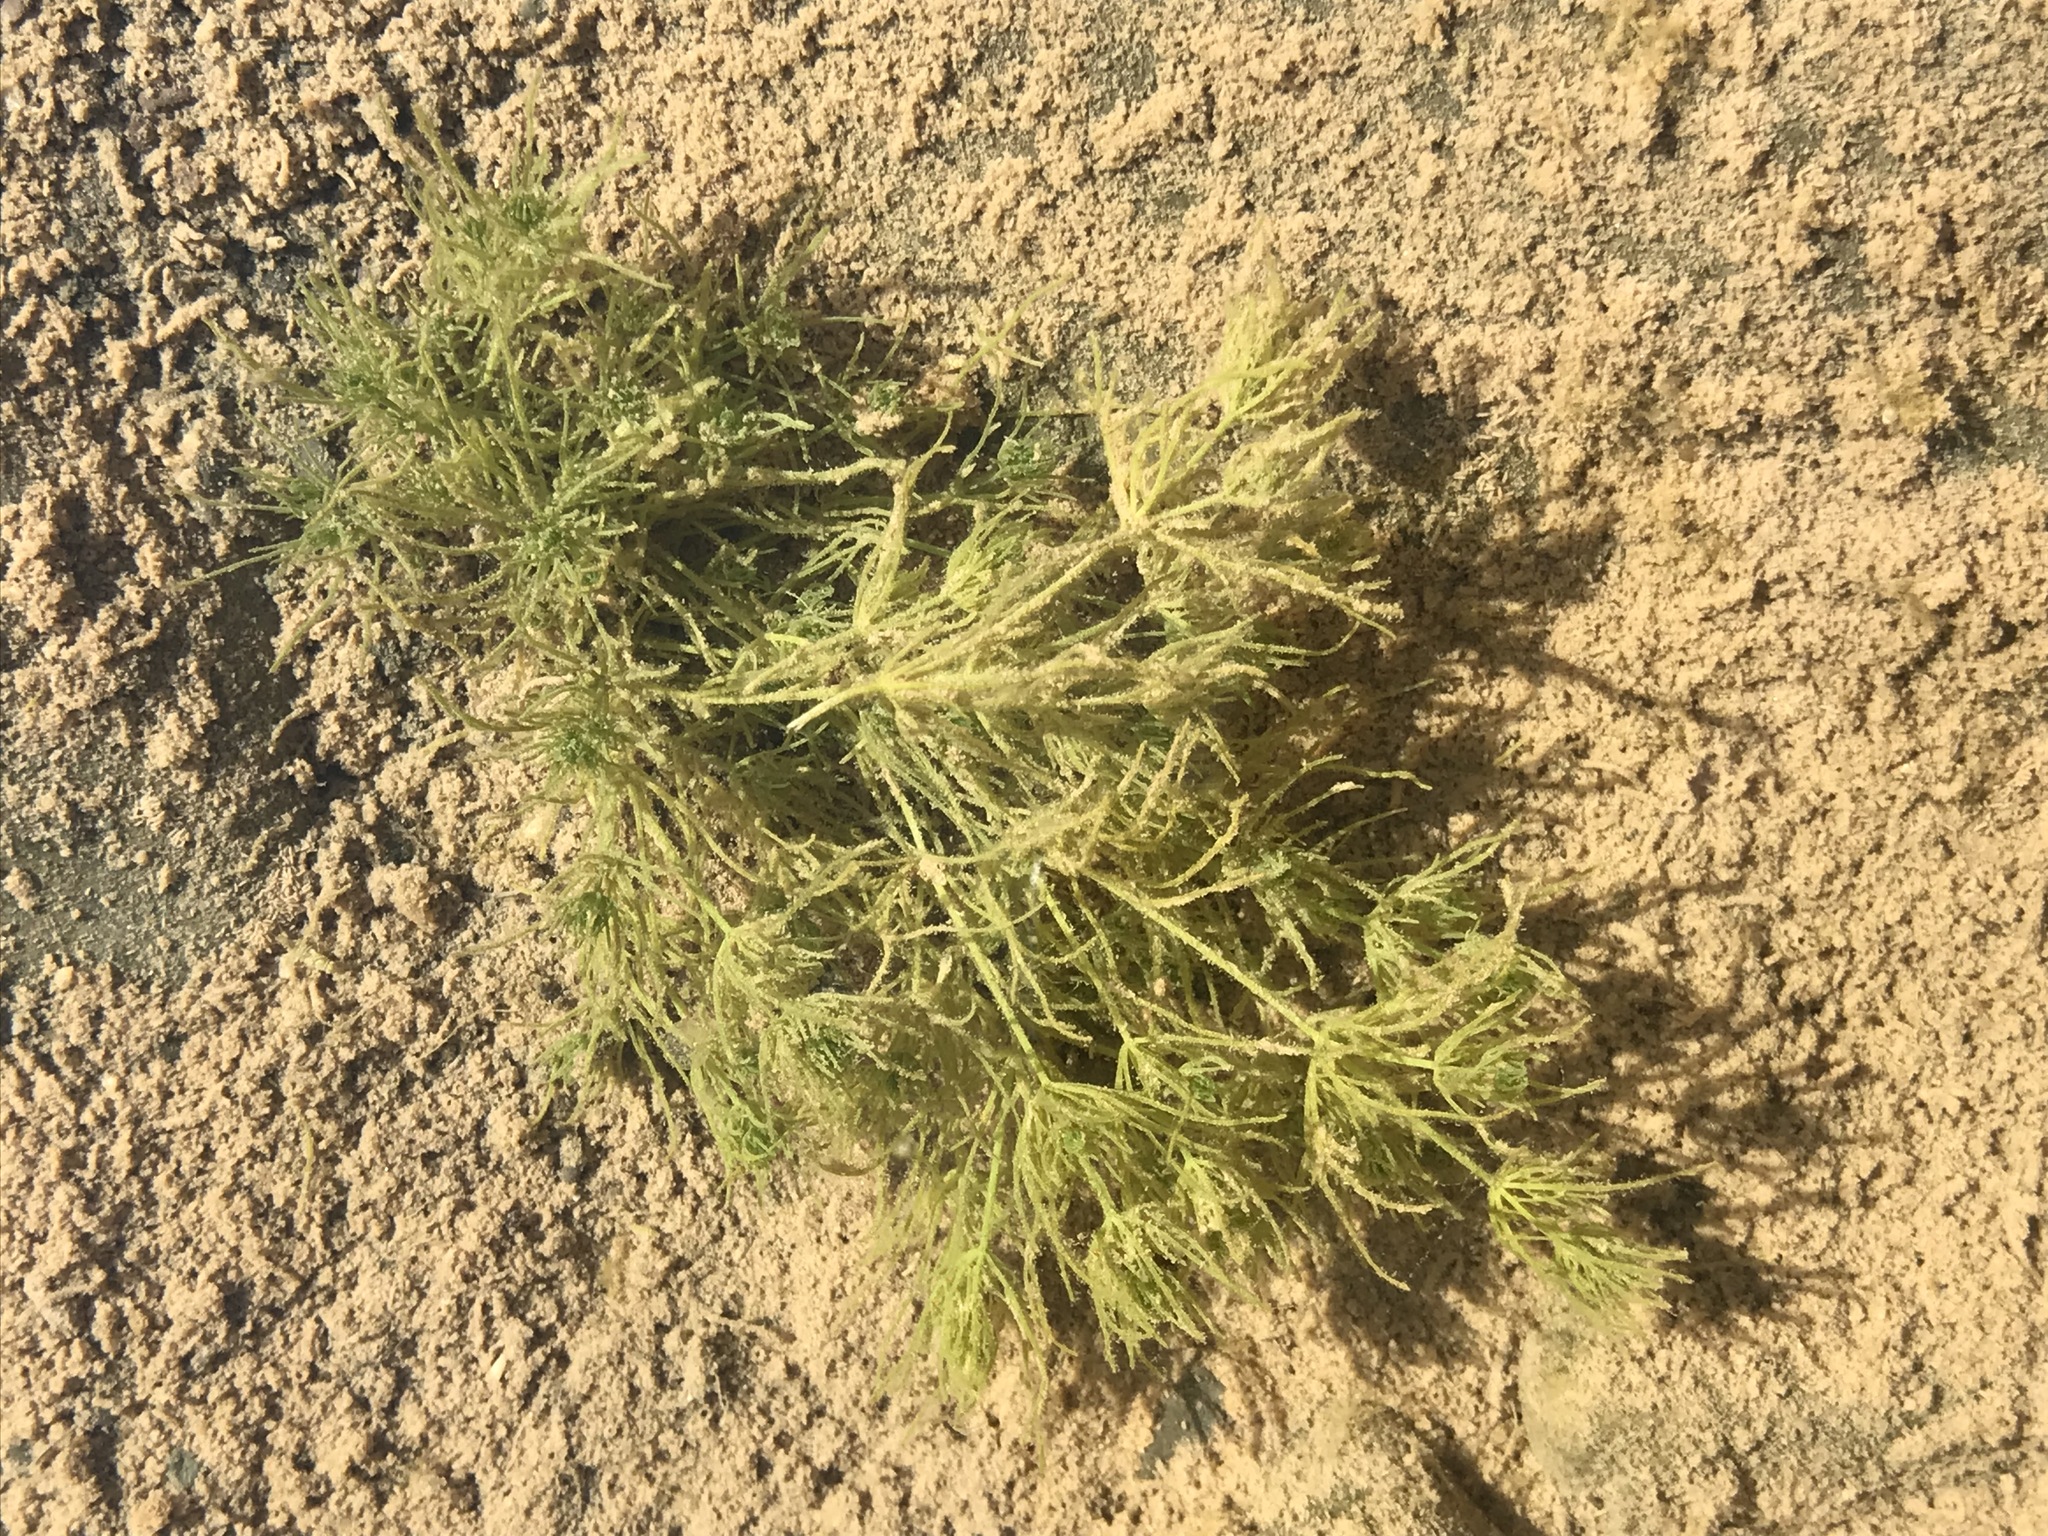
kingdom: Plantae
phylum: Charophyta
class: Charophyceae
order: Charales
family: Characeae
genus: Chara
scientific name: Chara vulgaris
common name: Common stonewort
